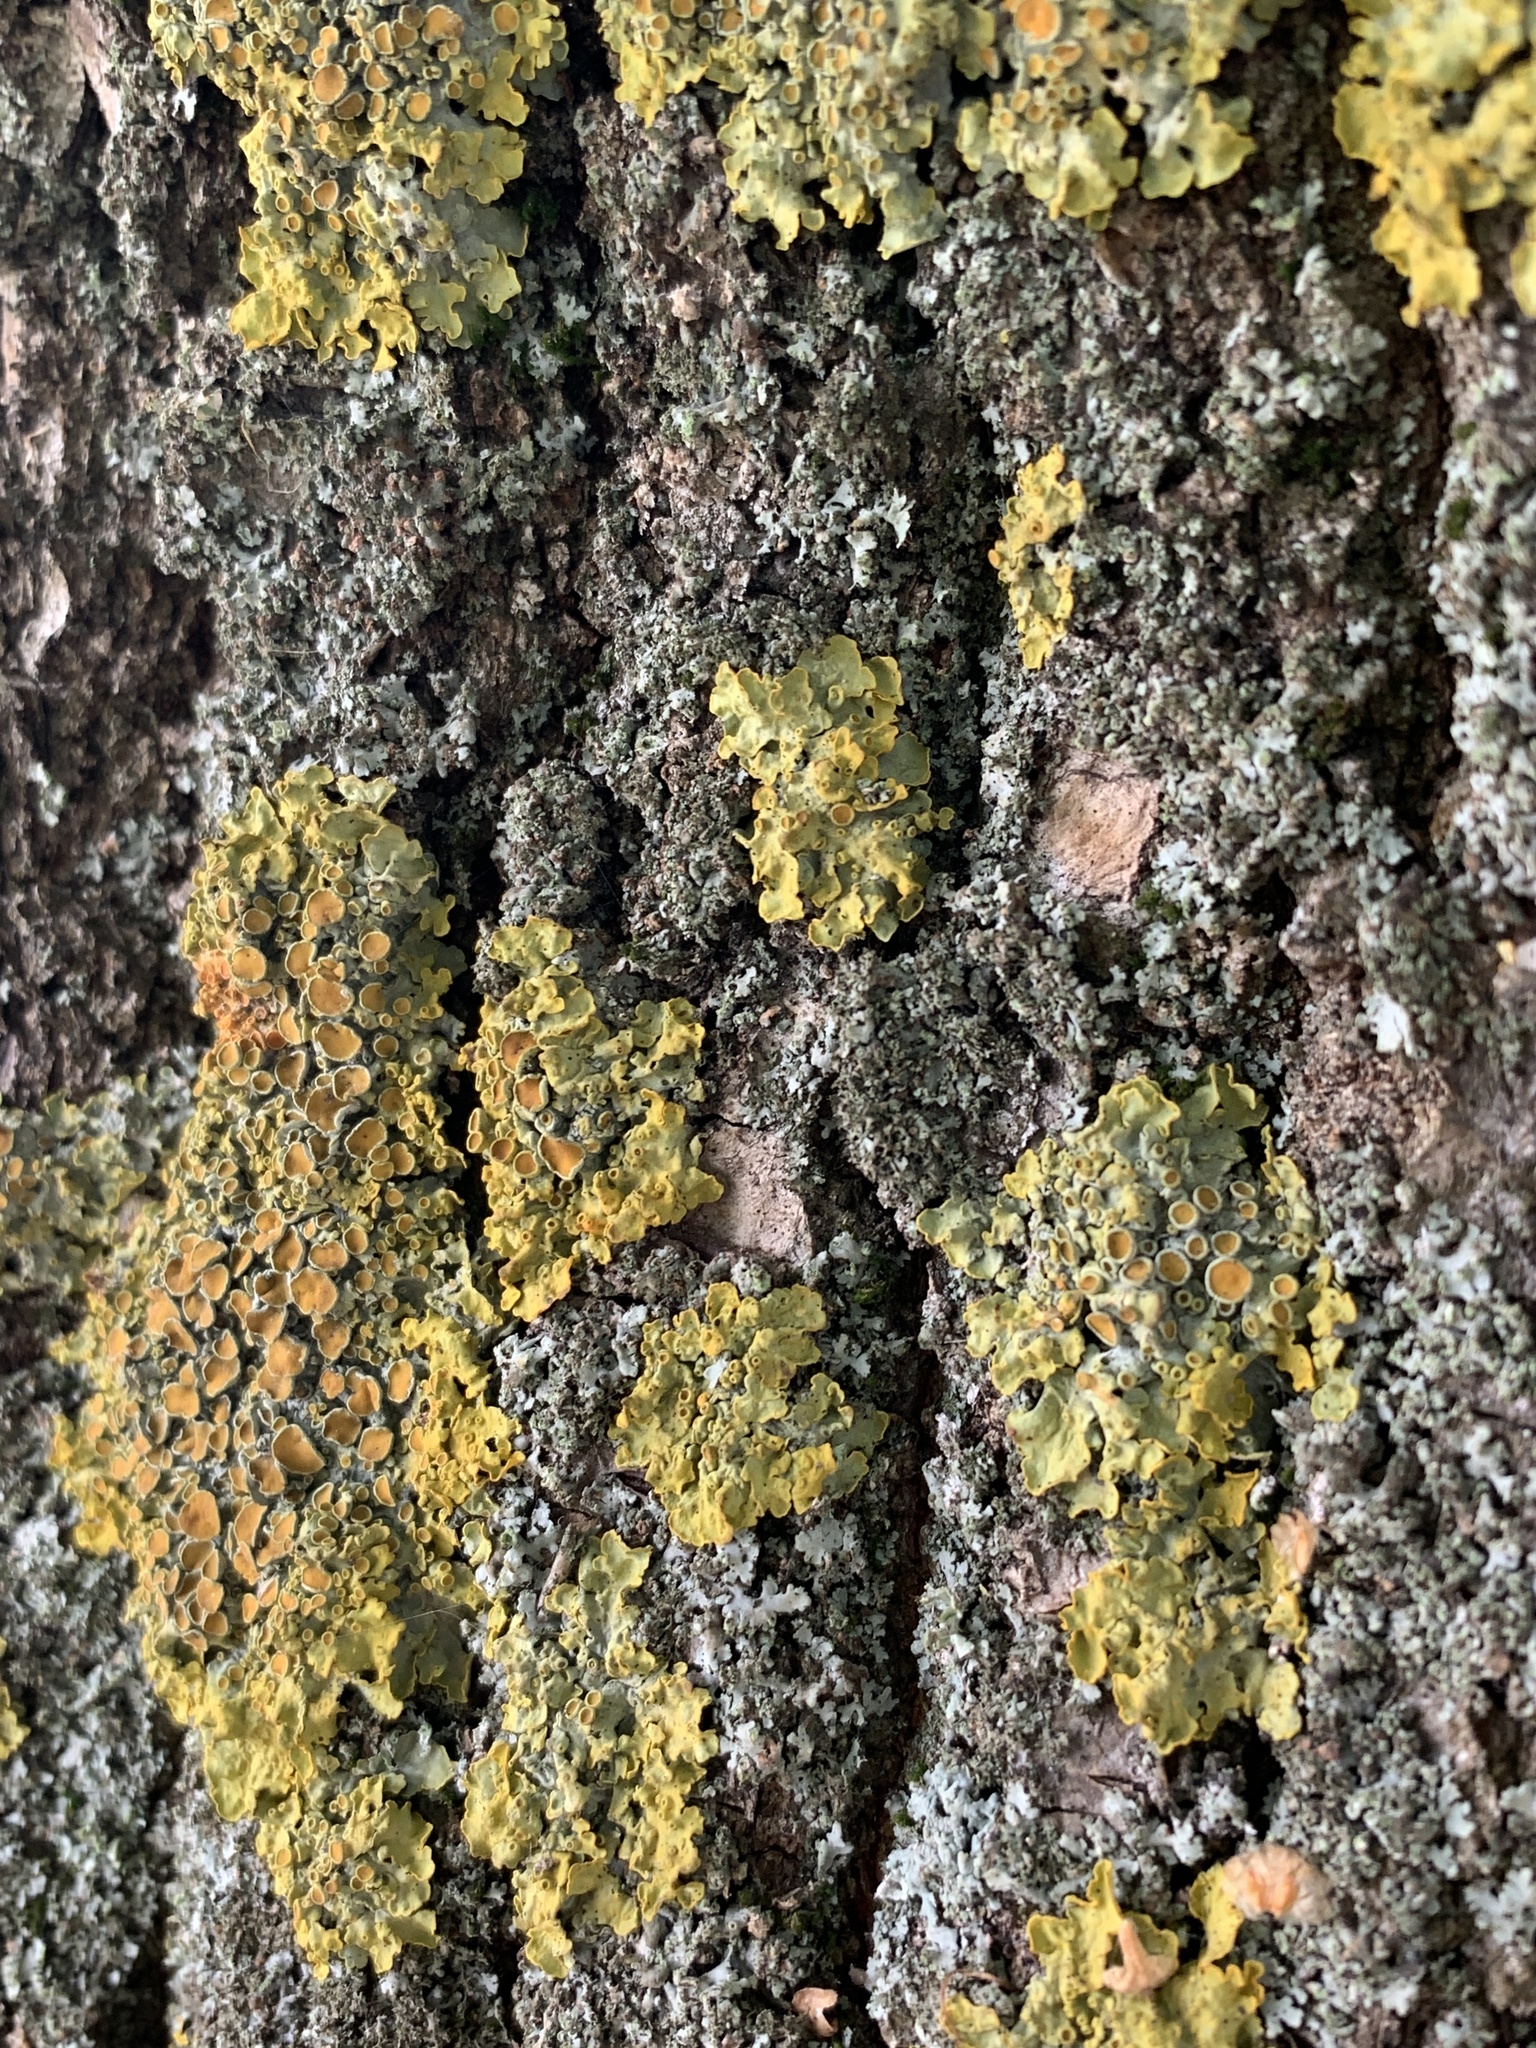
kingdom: Fungi
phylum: Ascomycota
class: Lecanoromycetes
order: Teloschistales
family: Teloschistaceae
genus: Xanthoria
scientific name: Xanthoria parietina
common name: Common orange lichen
